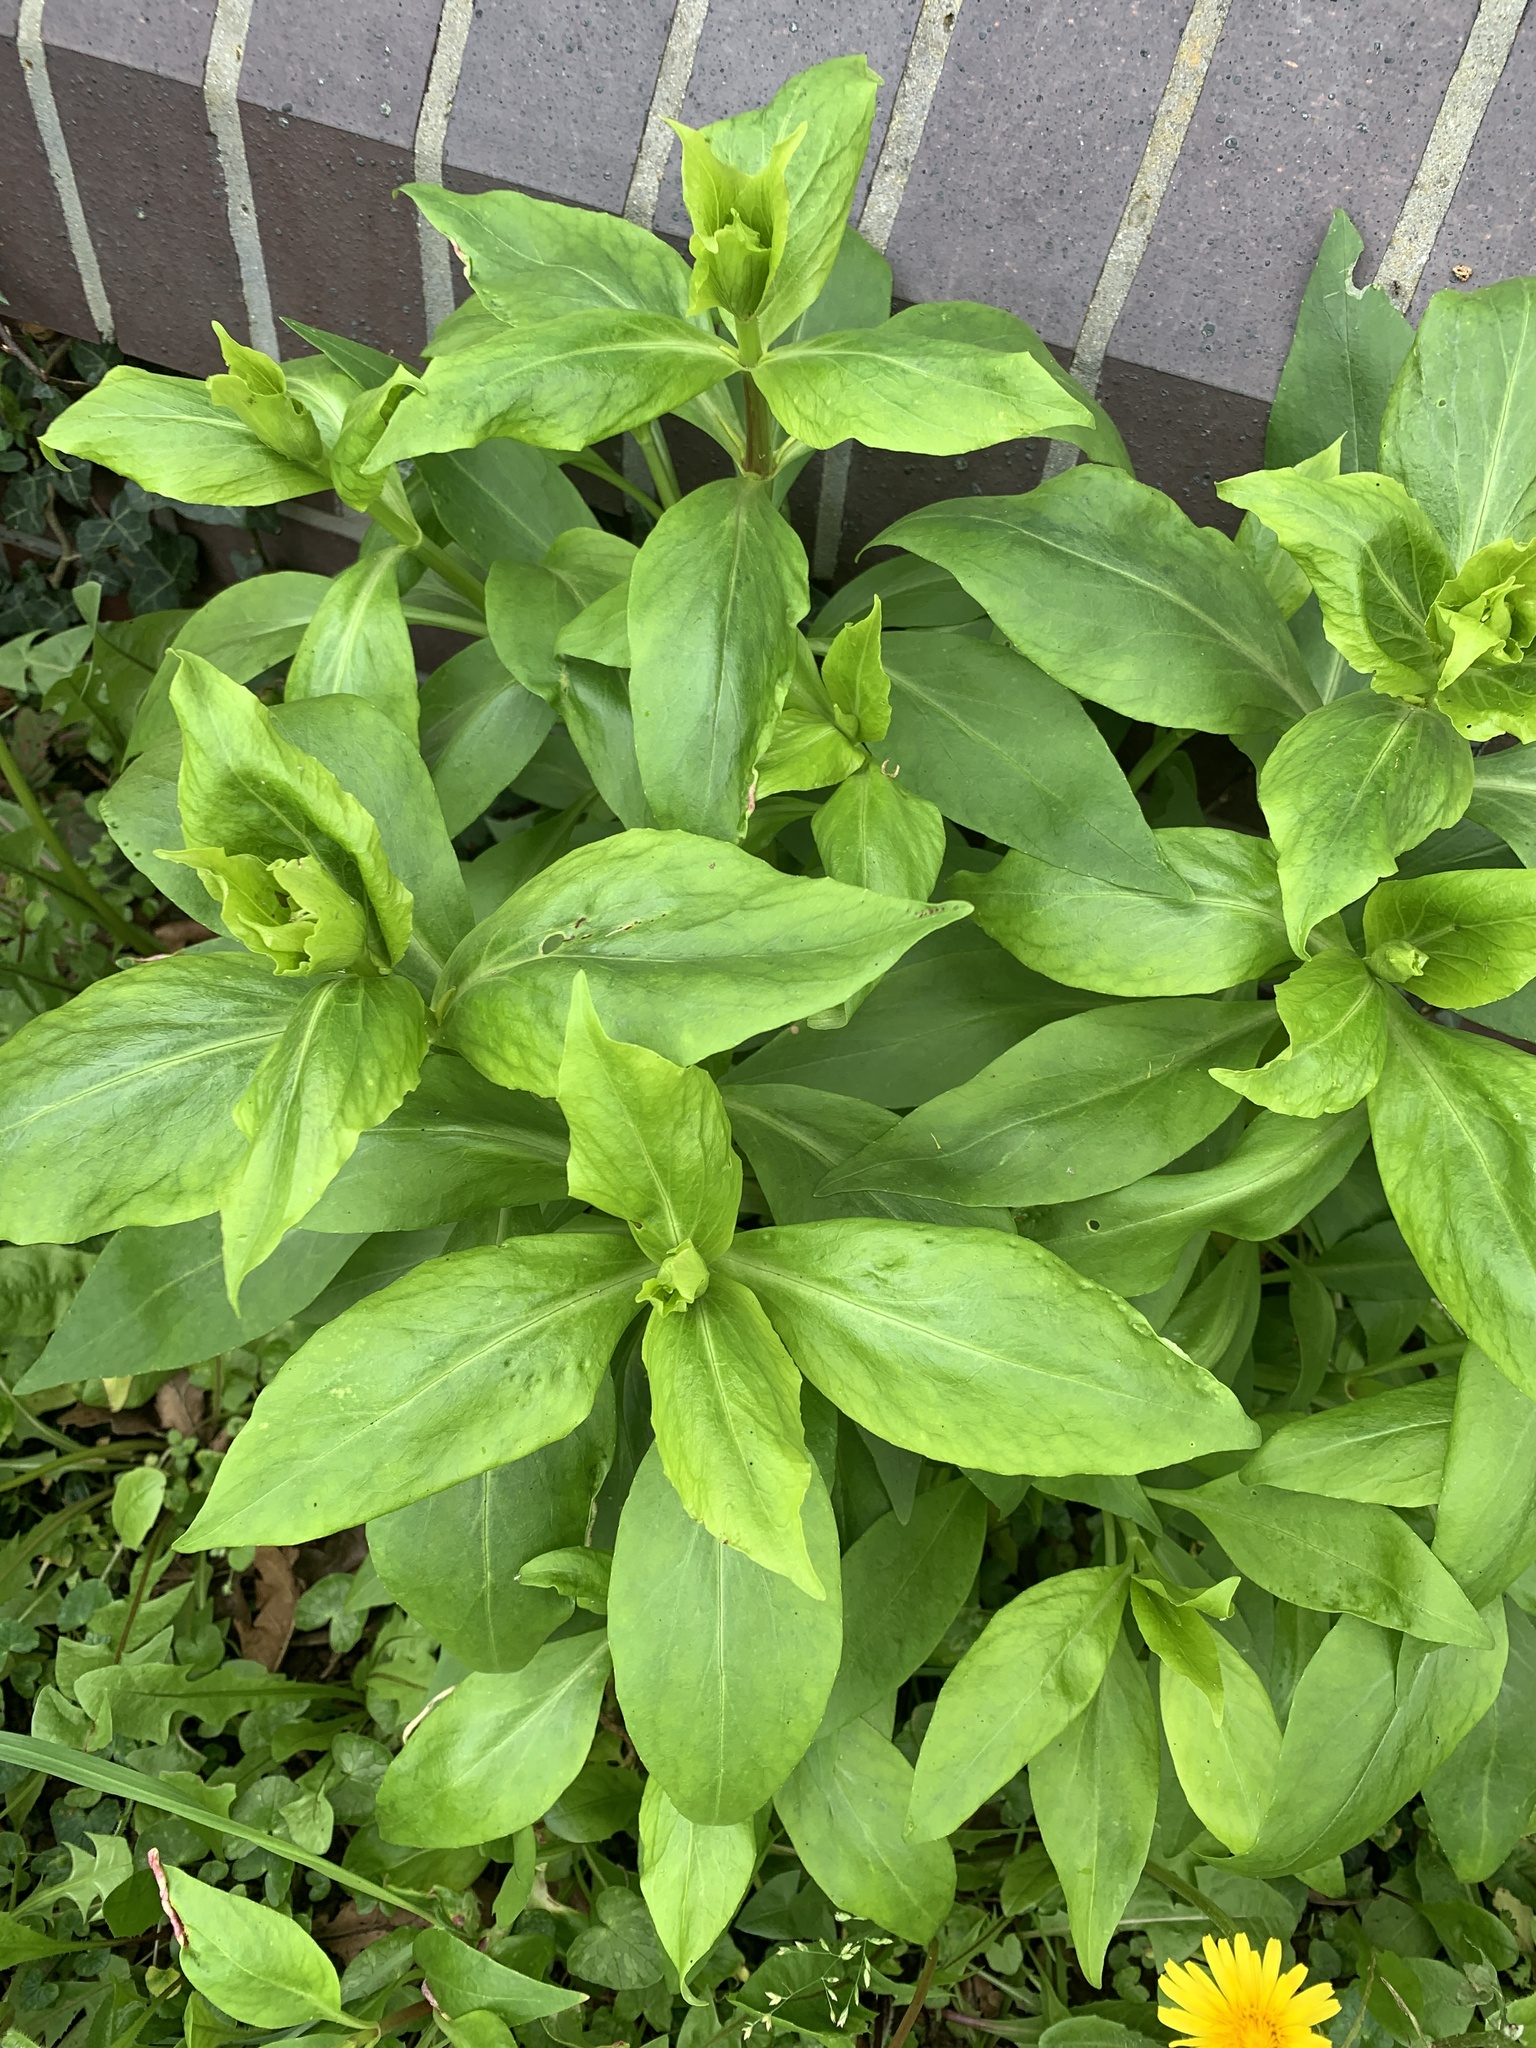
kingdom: Plantae
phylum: Tracheophyta
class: Magnoliopsida
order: Dipsacales
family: Caprifoliaceae
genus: Centranthus
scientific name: Centranthus ruber
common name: Red valerian
